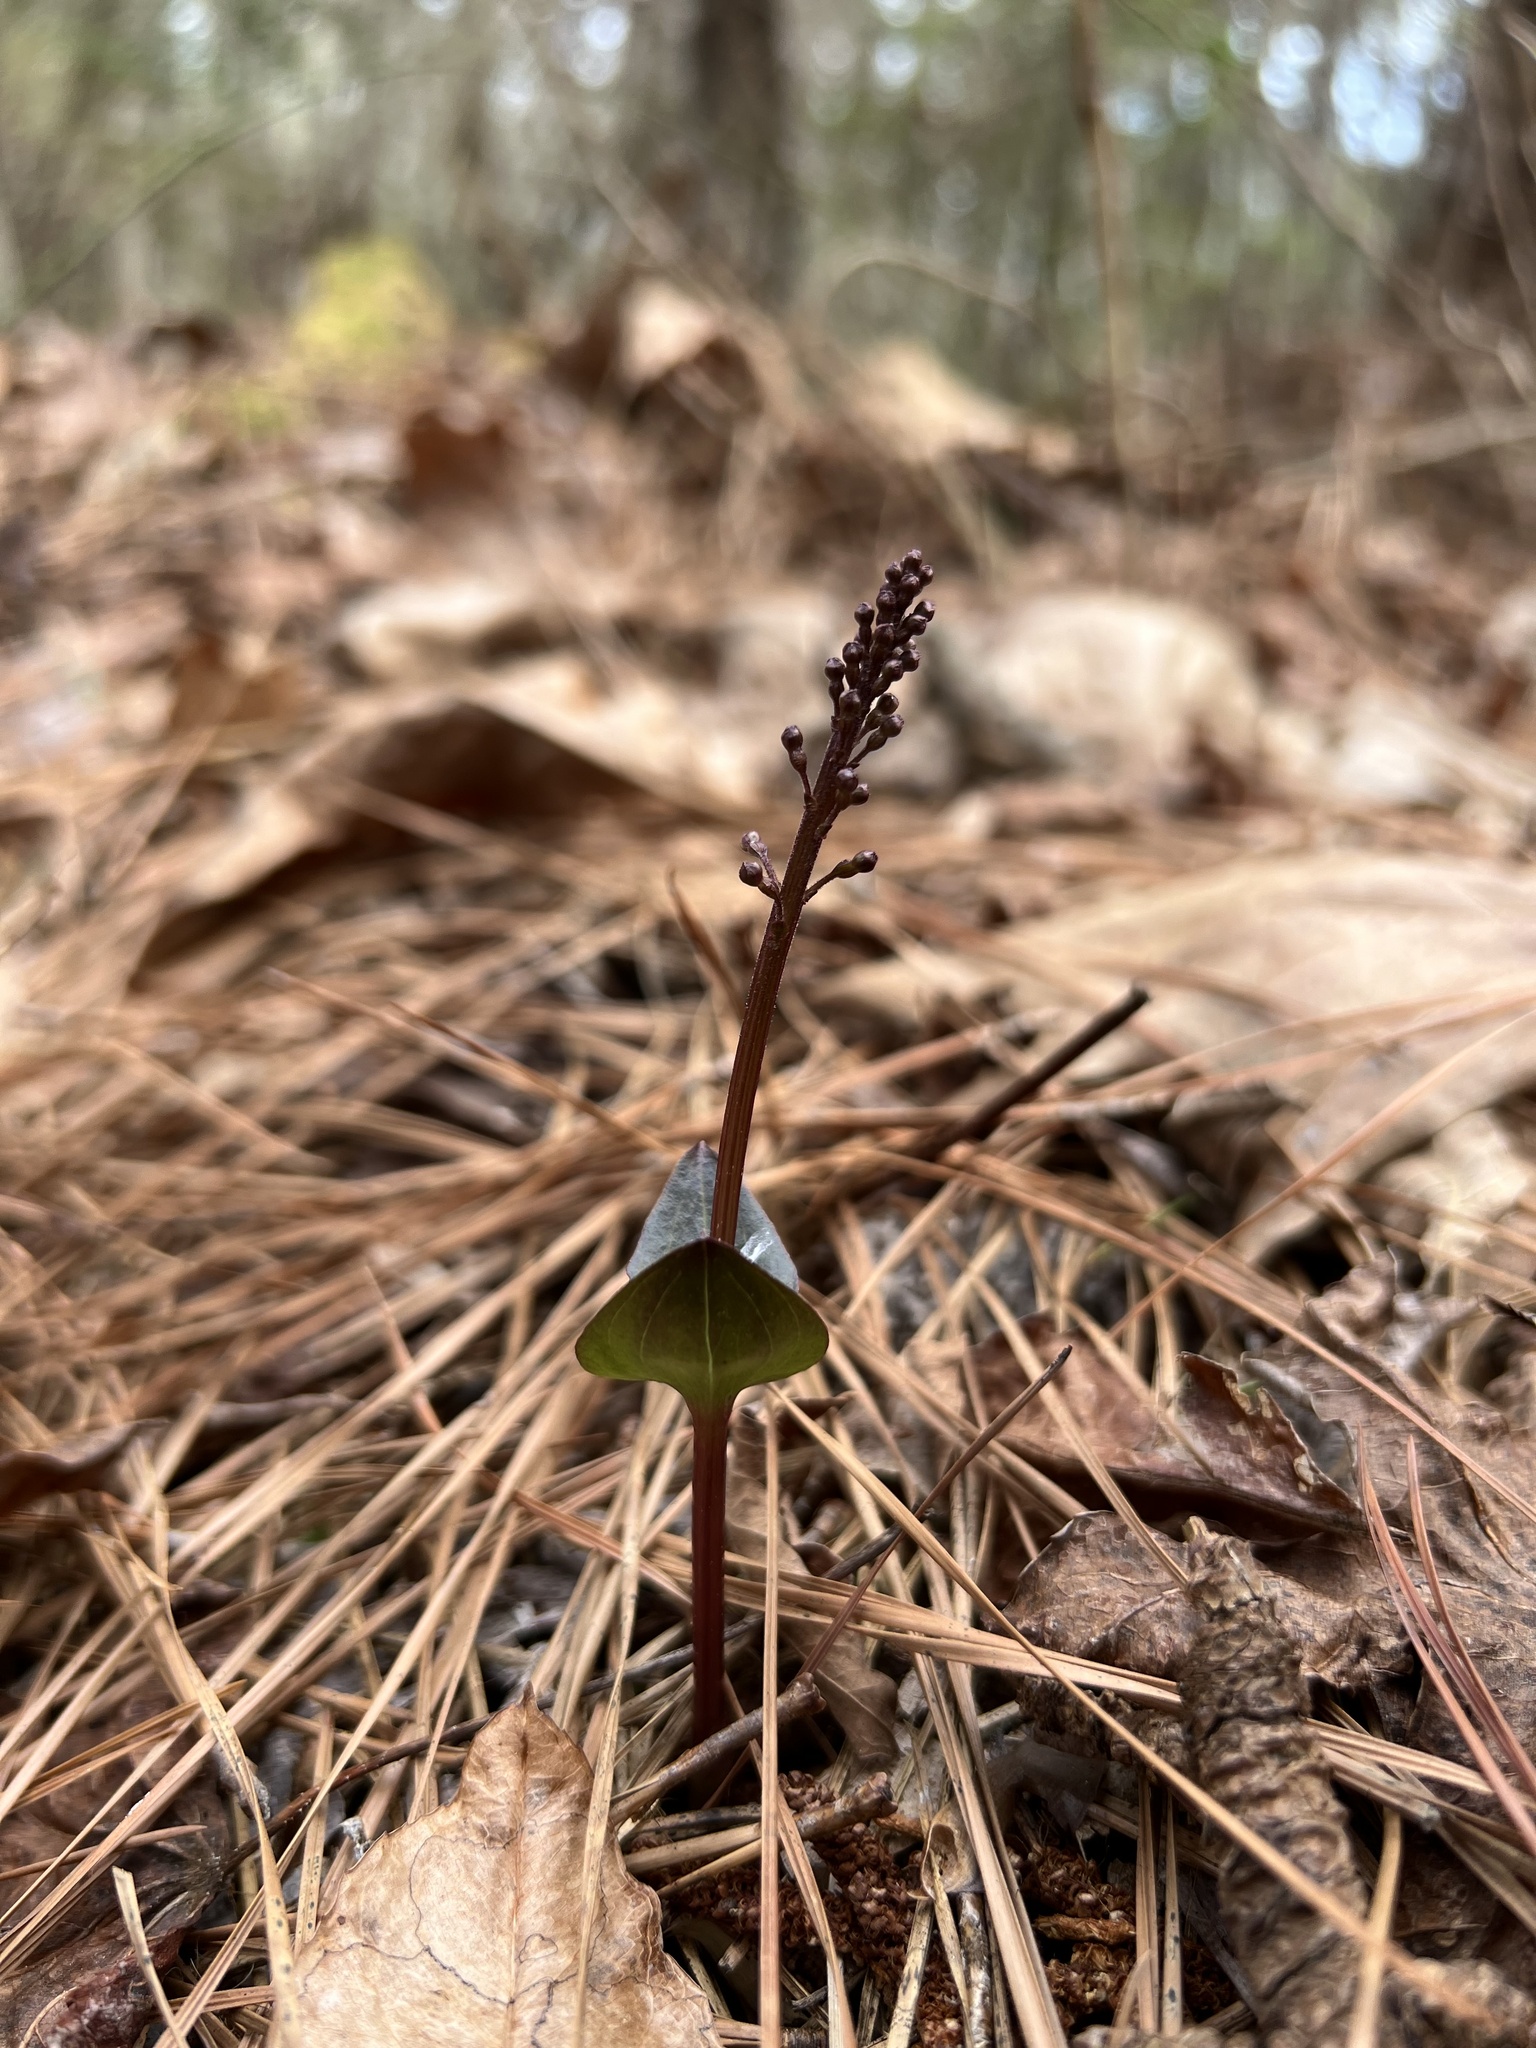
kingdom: Plantae
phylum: Tracheophyta
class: Liliopsida
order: Asparagales
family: Orchidaceae
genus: Neottia
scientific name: Neottia bifolia
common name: Southern twayblade
